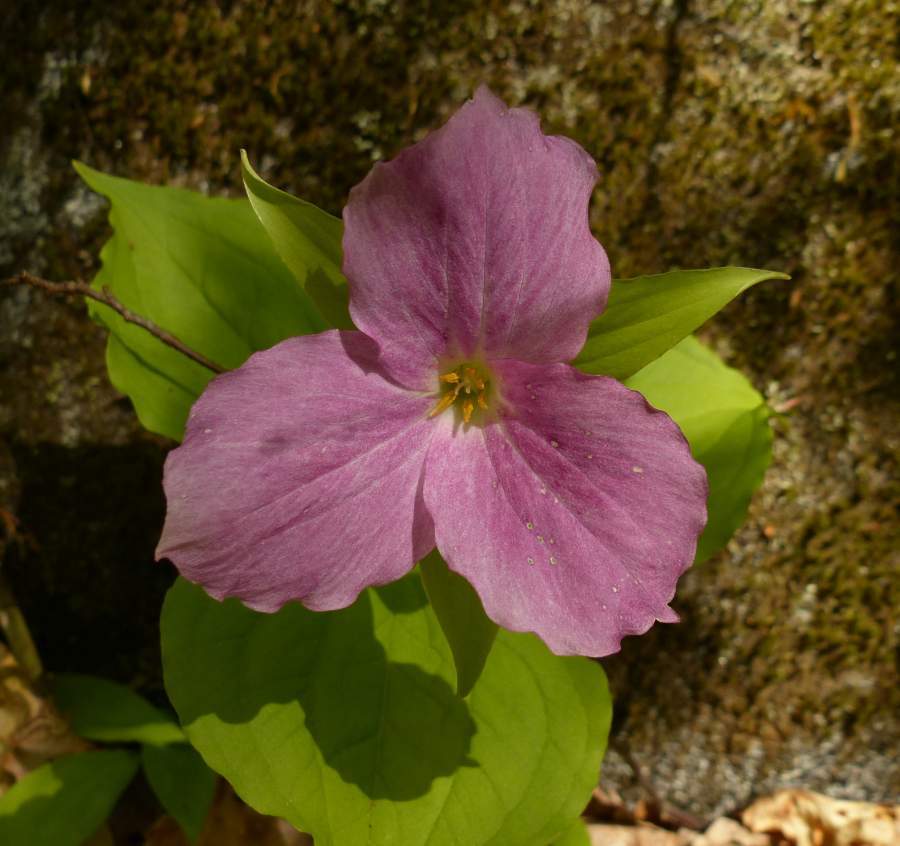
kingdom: Plantae
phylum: Tracheophyta
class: Liliopsida
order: Liliales
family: Melanthiaceae
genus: Trillium
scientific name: Trillium grandiflorum
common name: Great white trillium
